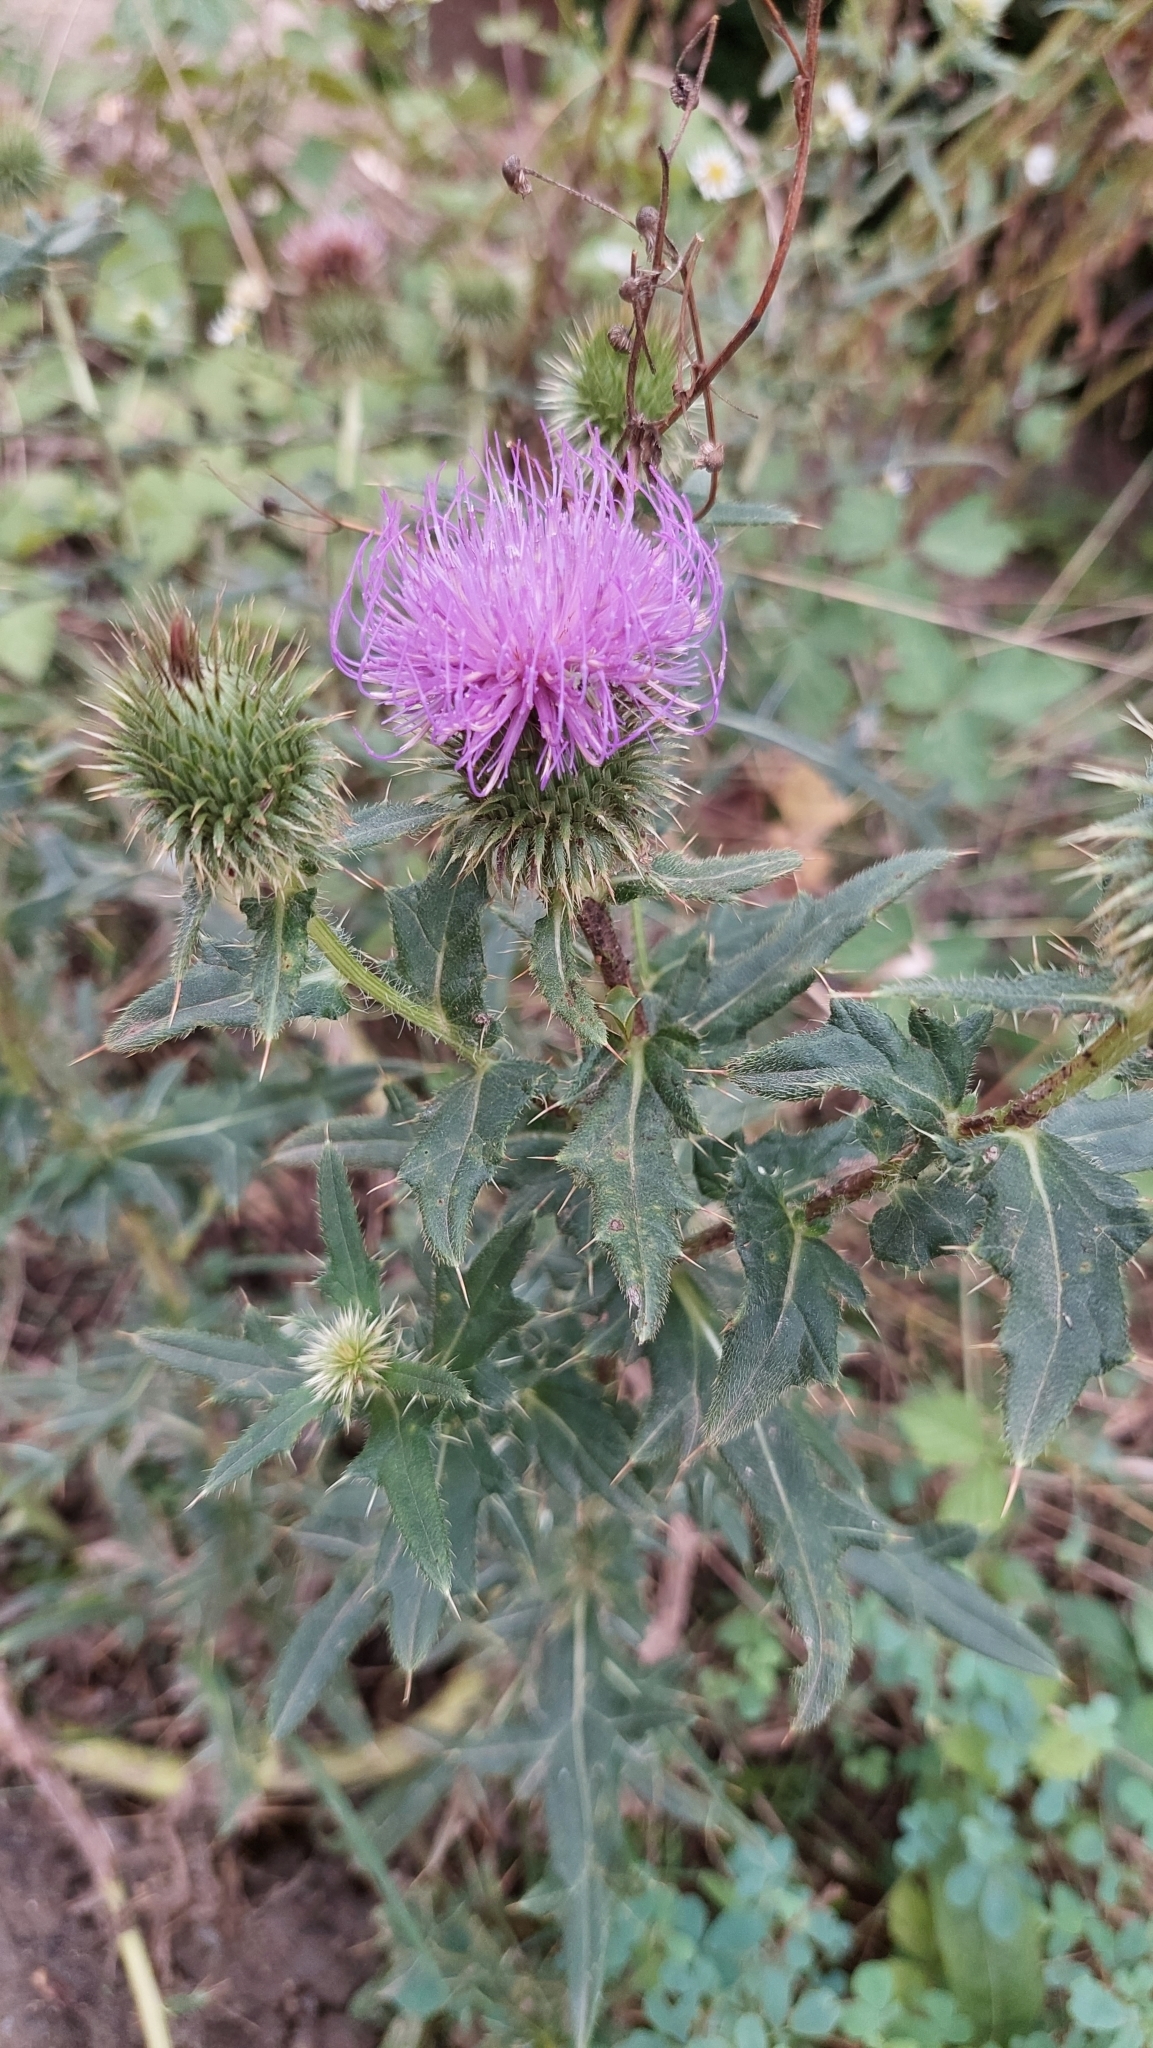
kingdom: Plantae
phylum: Tracheophyta
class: Magnoliopsida
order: Asterales
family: Asteraceae
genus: Lophiolepis
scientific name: Lophiolepis ciliata
